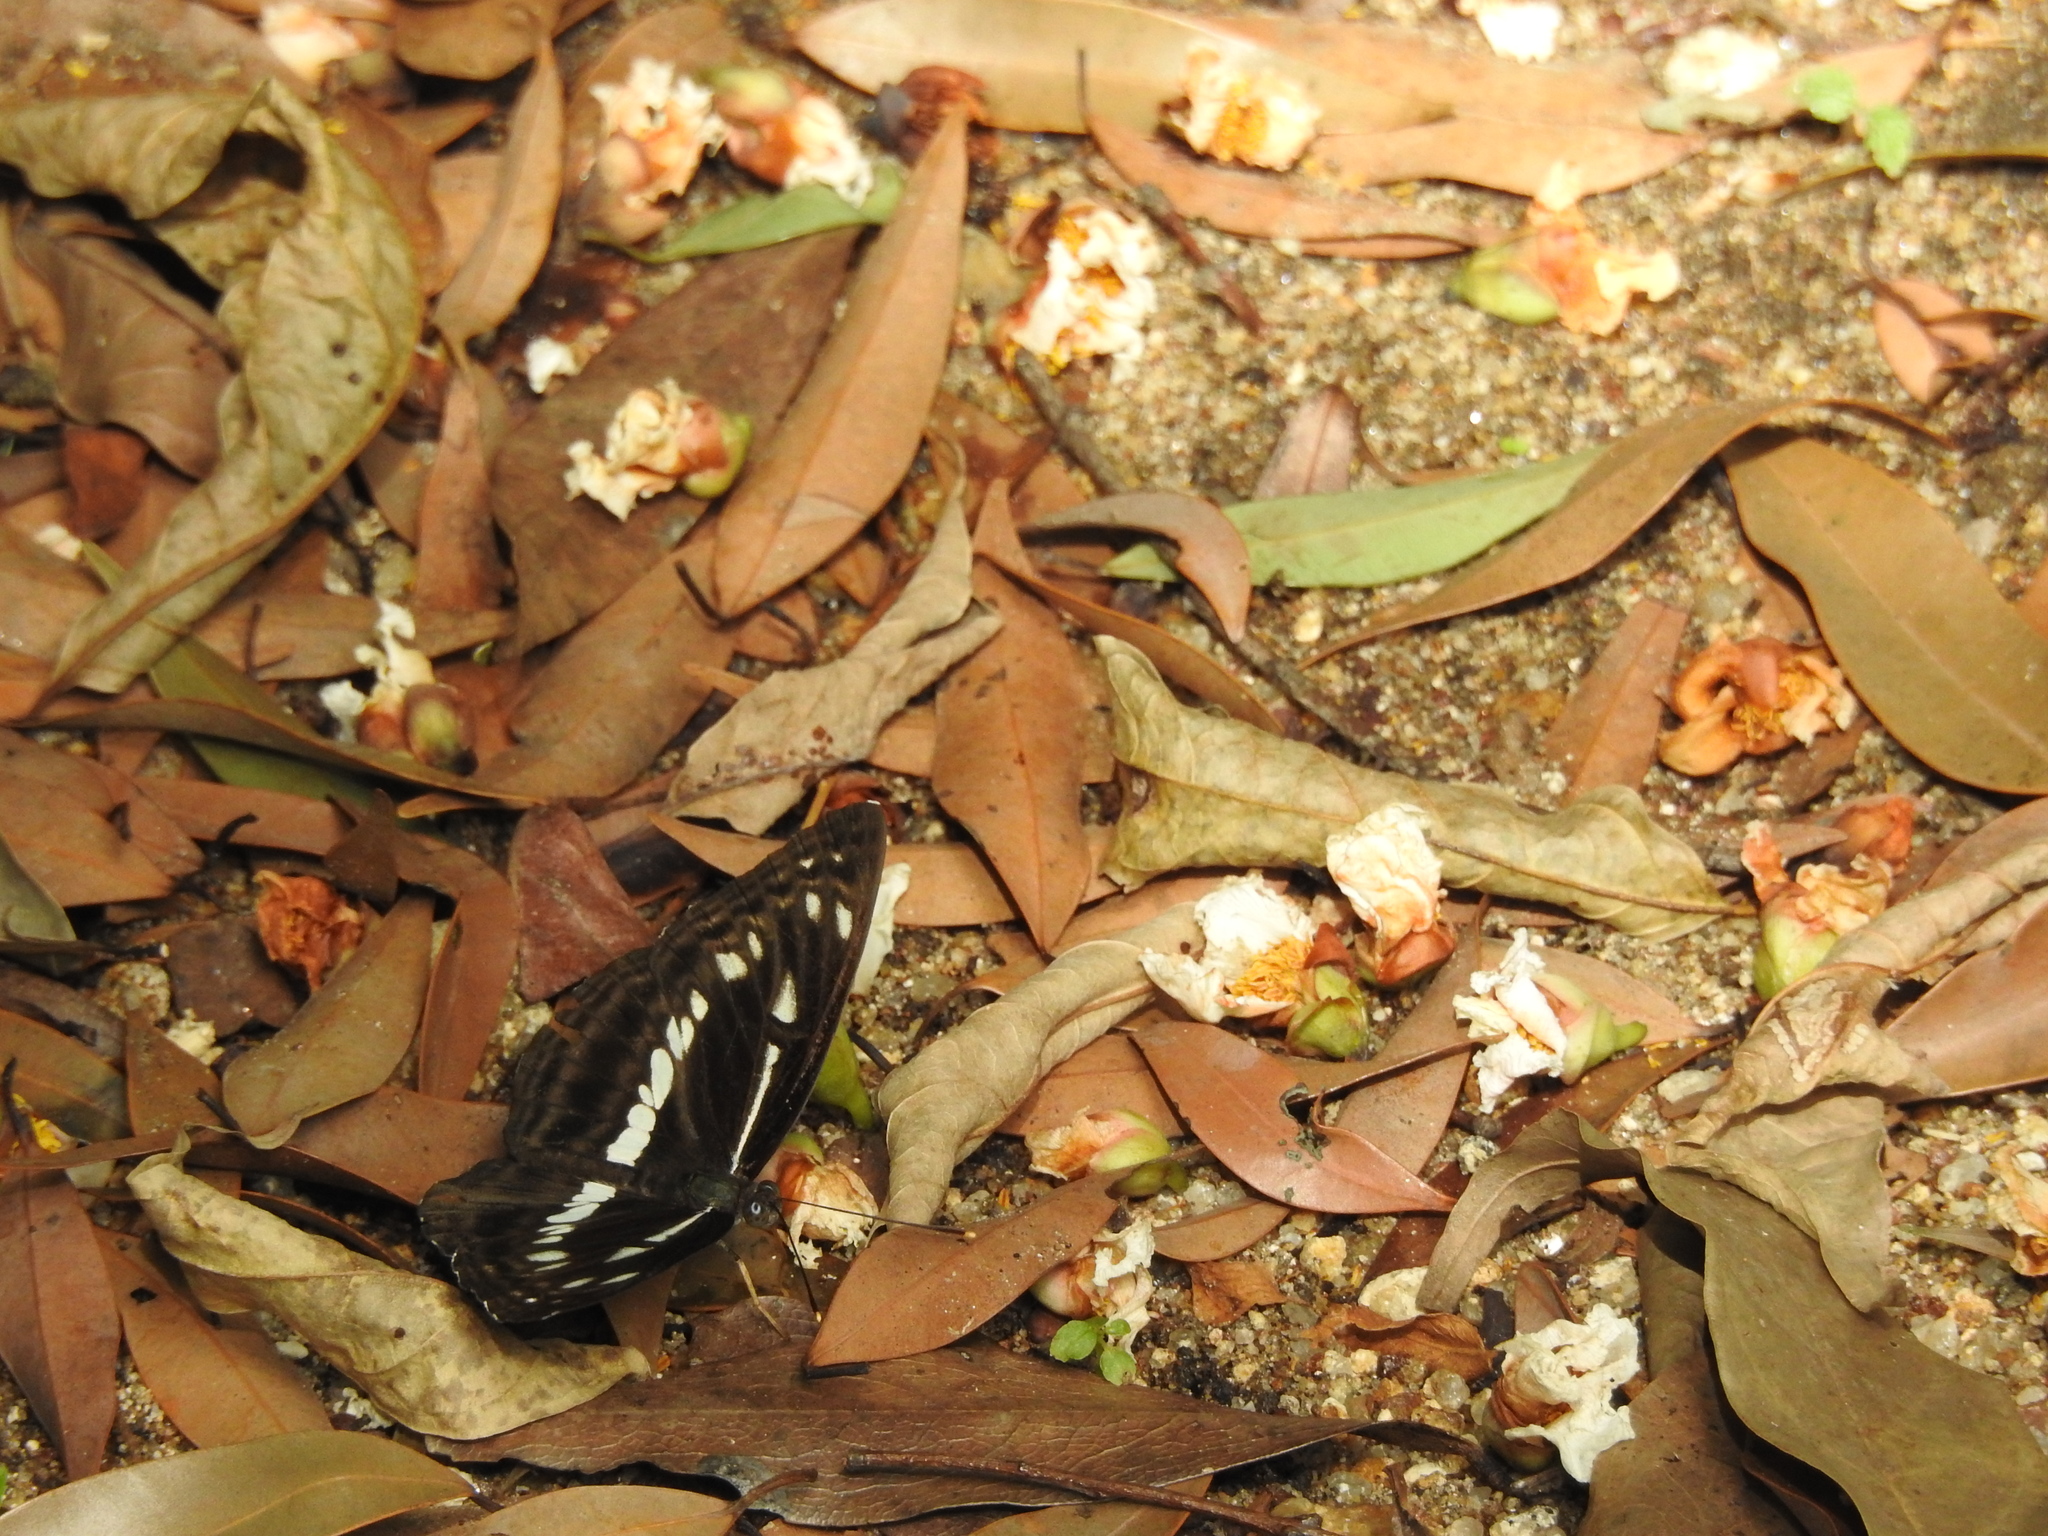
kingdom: Animalia
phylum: Arthropoda
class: Insecta
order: Lepidoptera
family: Nymphalidae
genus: Neptis
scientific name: Neptis jumbah
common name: Chestnut-streaked sailer
